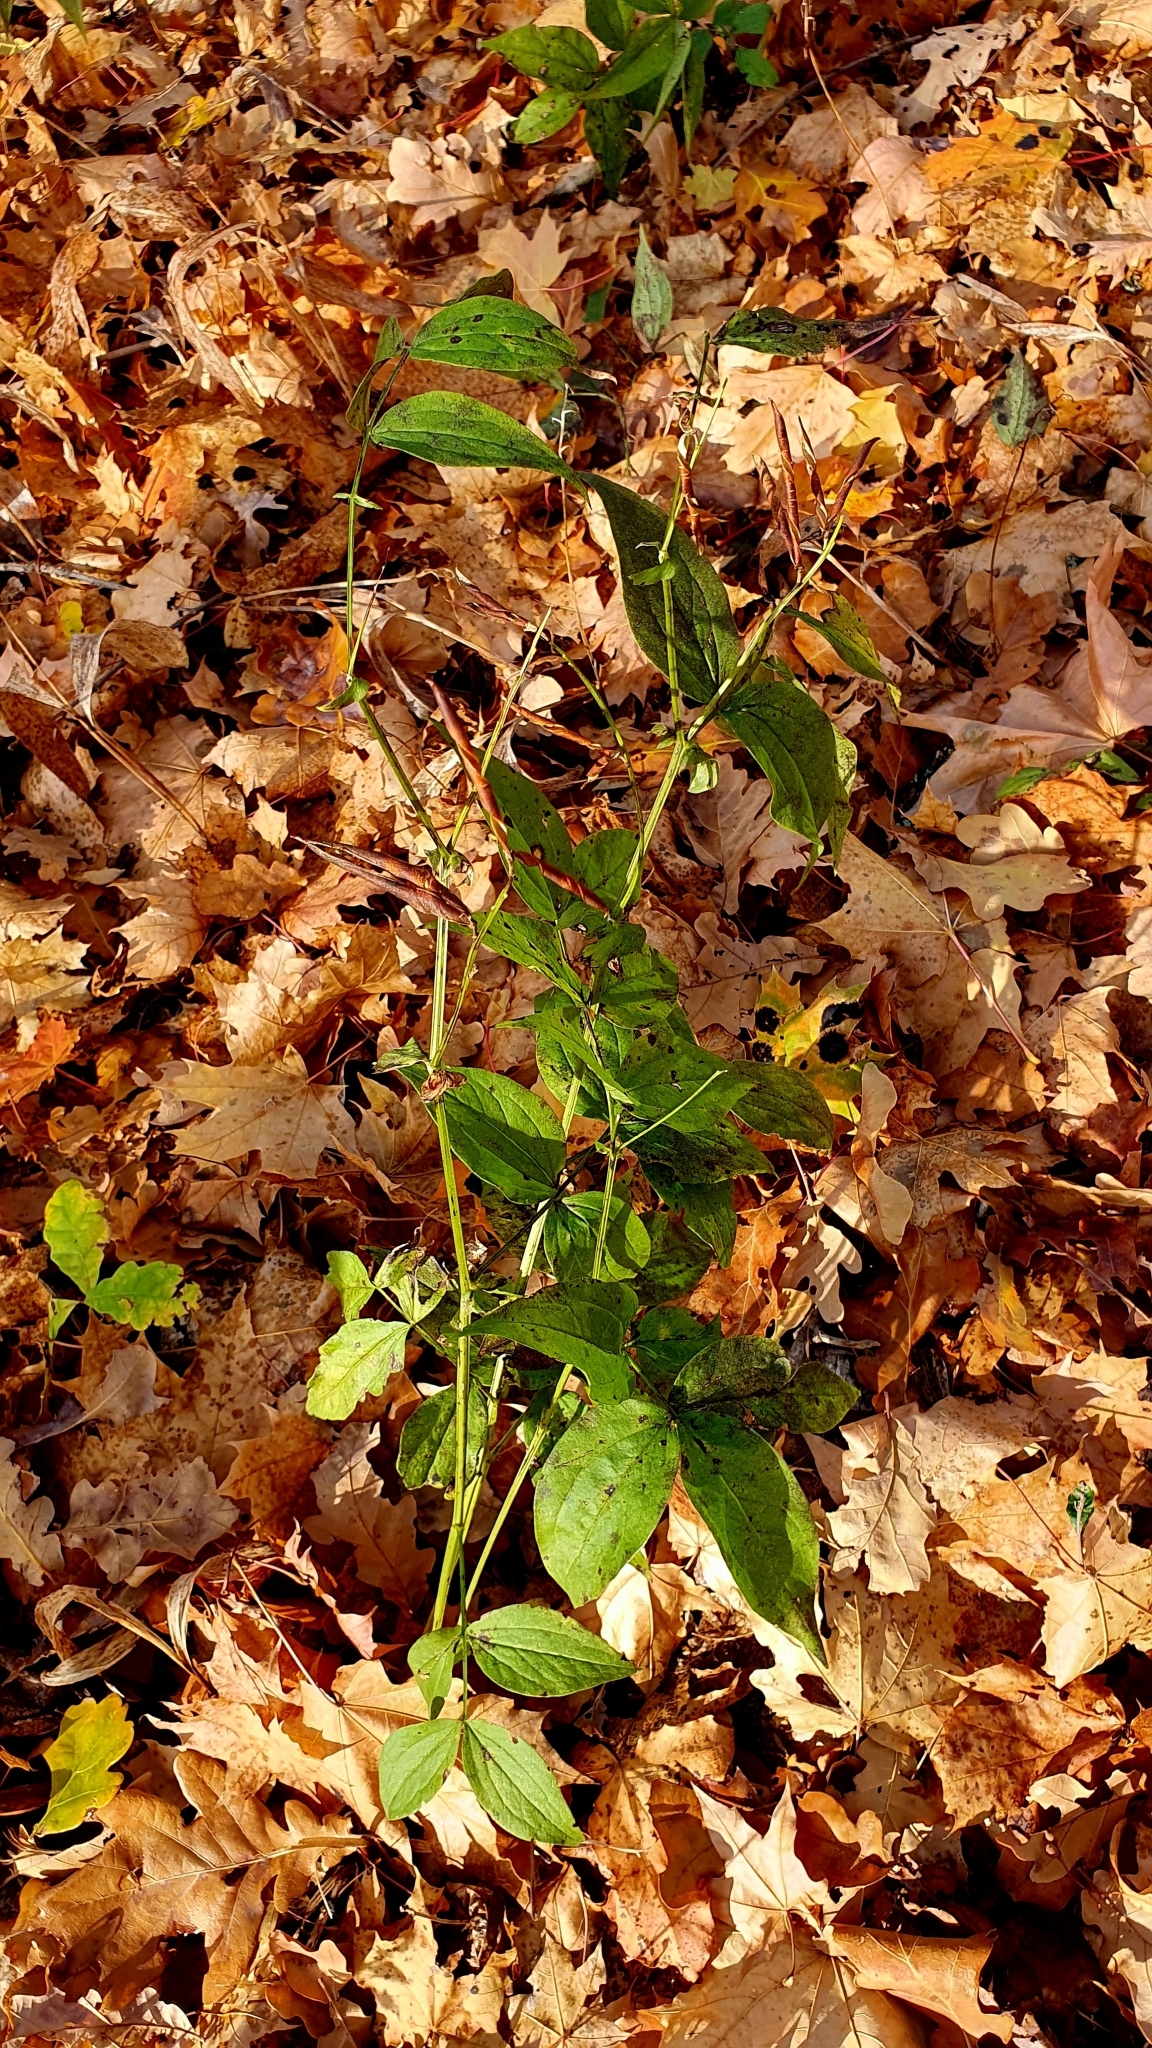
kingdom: Plantae
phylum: Tracheophyta
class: Magnoliopsida
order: Fabales
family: Fabaceae
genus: Lathyrus
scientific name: Lathyrus vernus
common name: Spring pea
